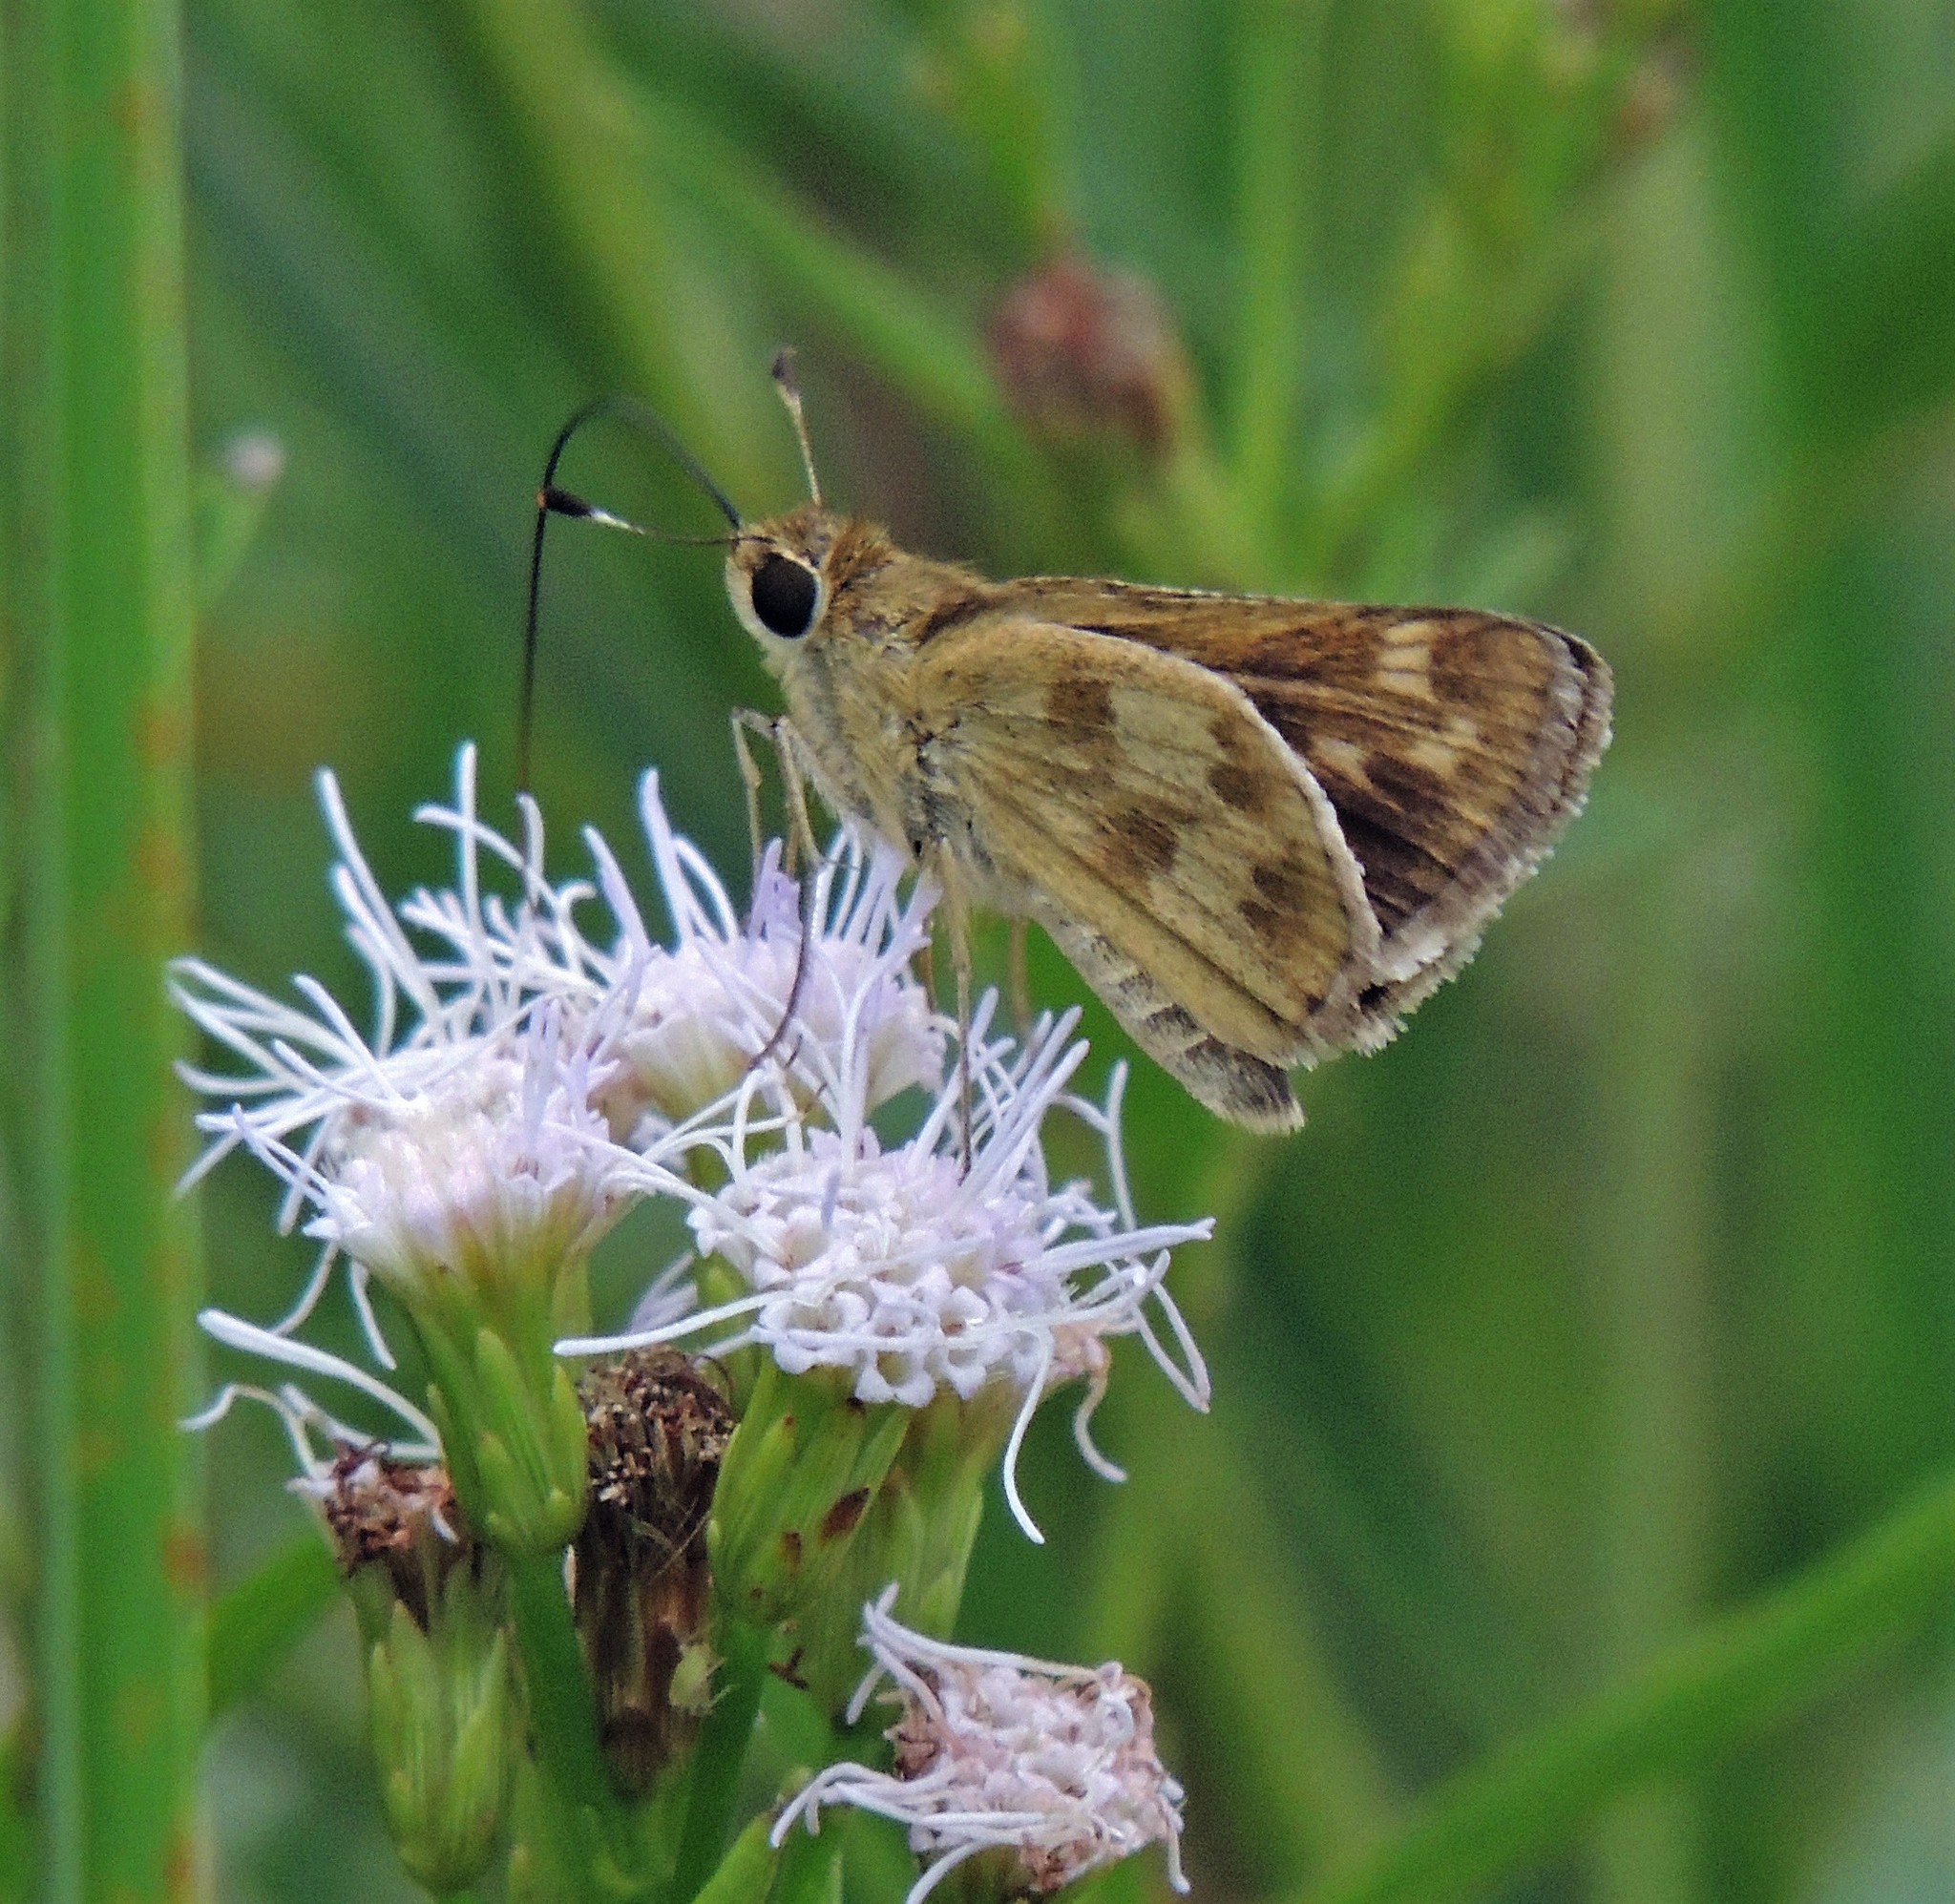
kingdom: Animalia
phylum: Arthropoda
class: Insecta
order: Lepidoptera
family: Hesperiidae
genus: Polites
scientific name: Polites vibex
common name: Whirlabout
